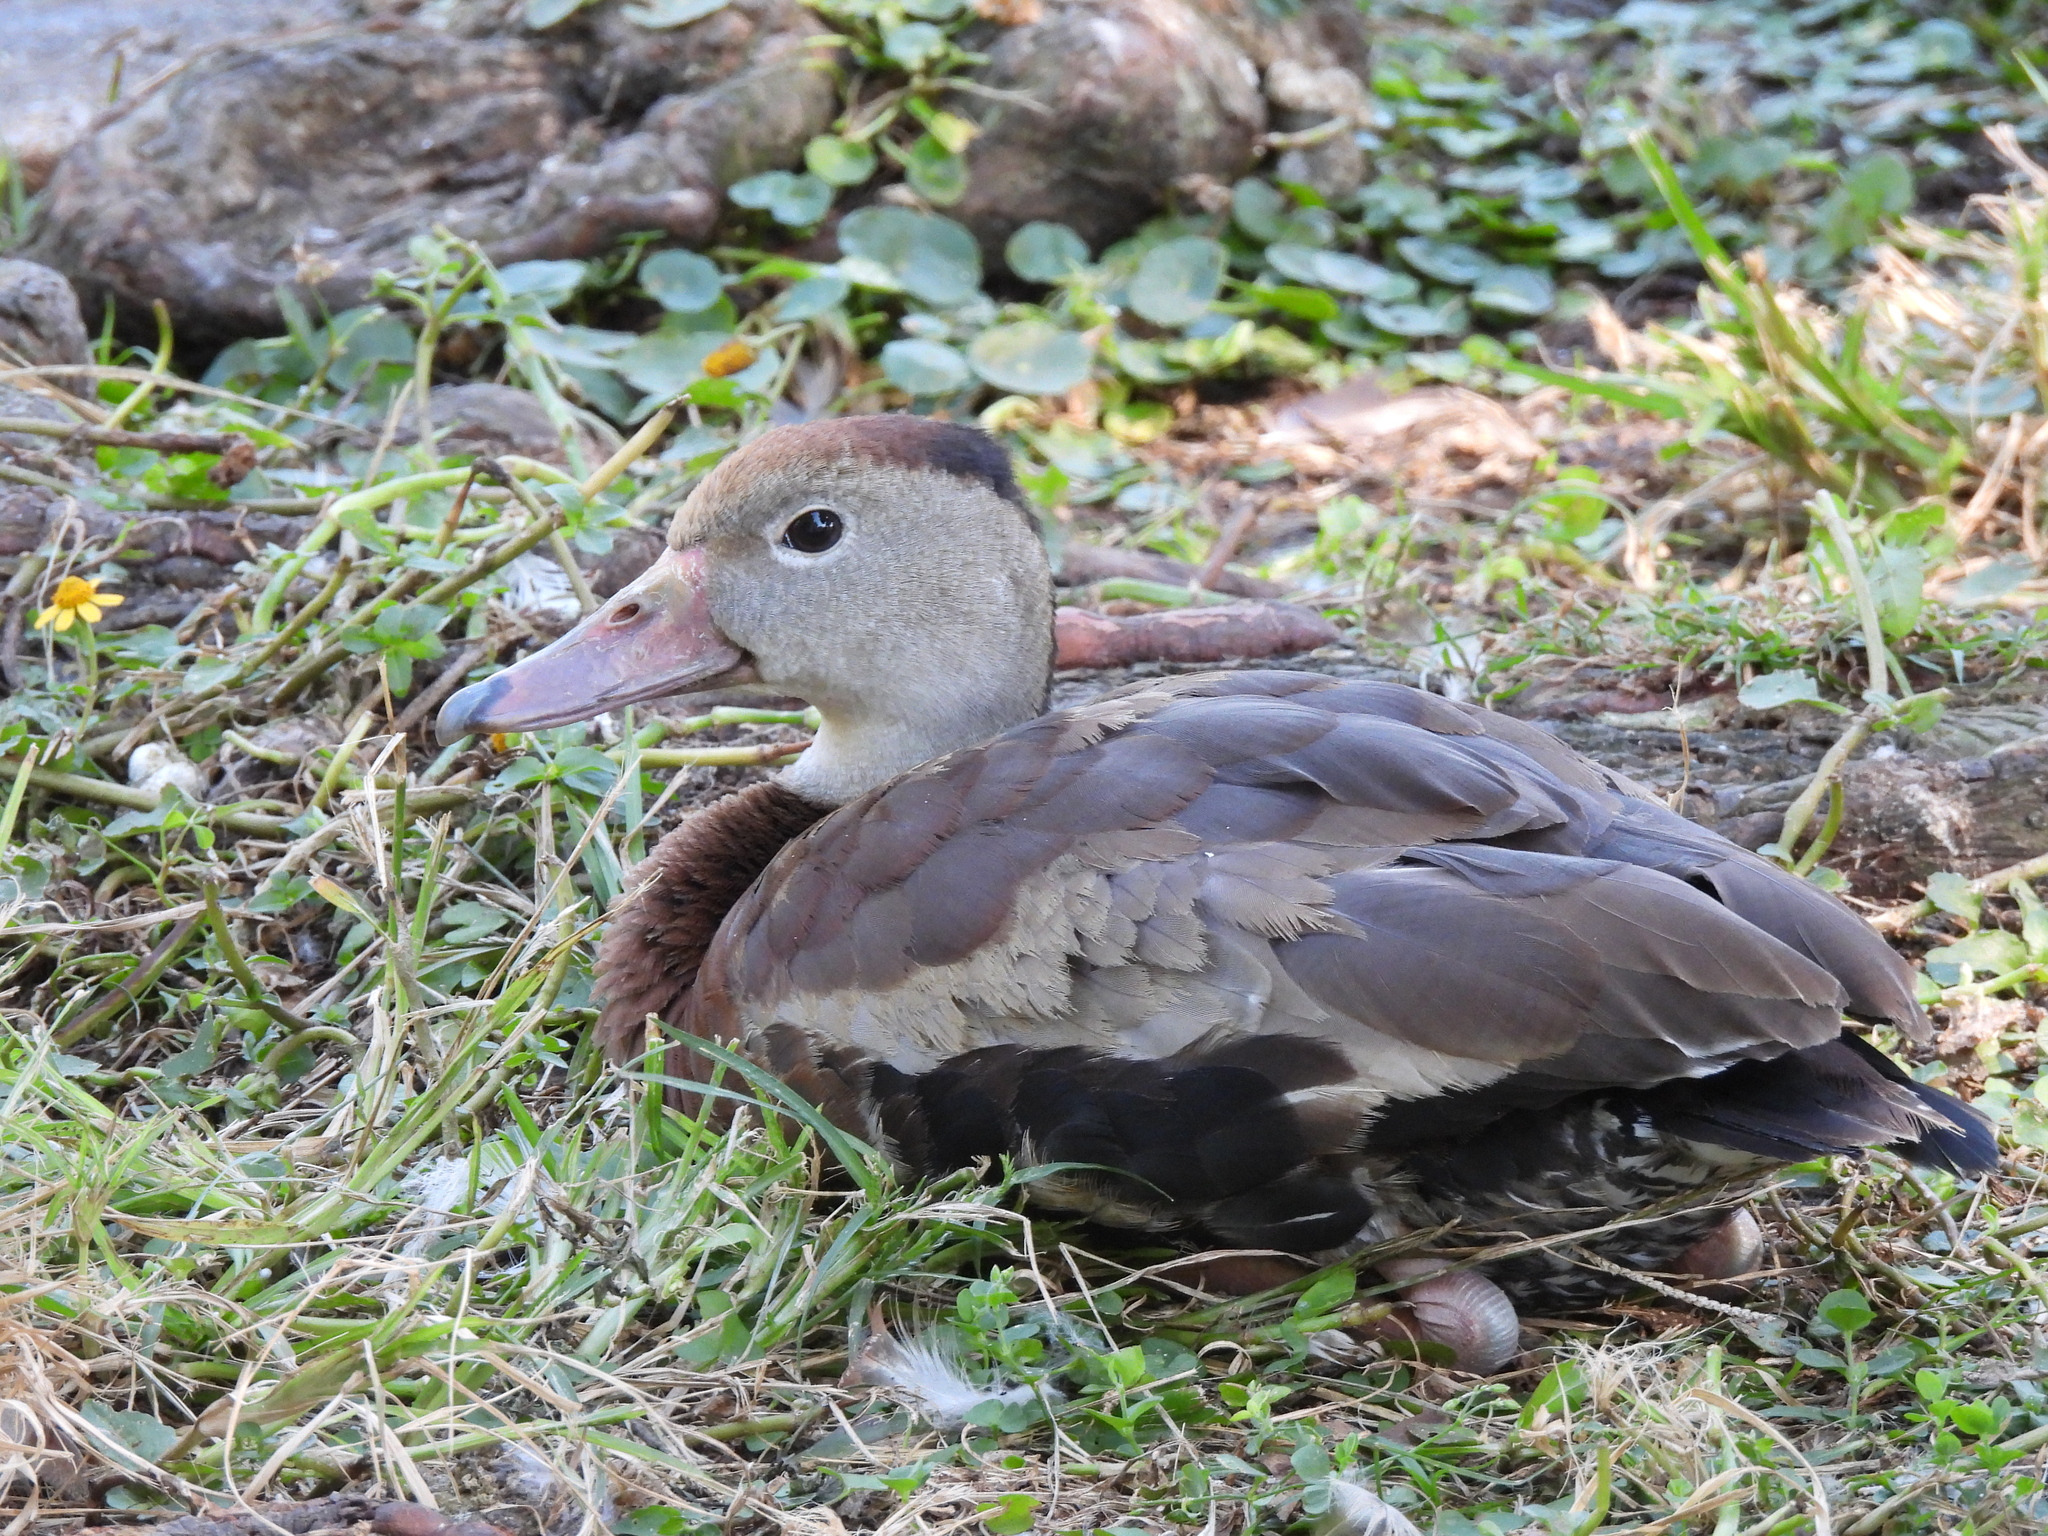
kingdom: Animalia
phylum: Chordata
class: Aves
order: Anseriformes
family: Anatidae
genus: Dendrocygna
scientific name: Dendrocygna autumnalis
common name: Black-bellied whistling duck
